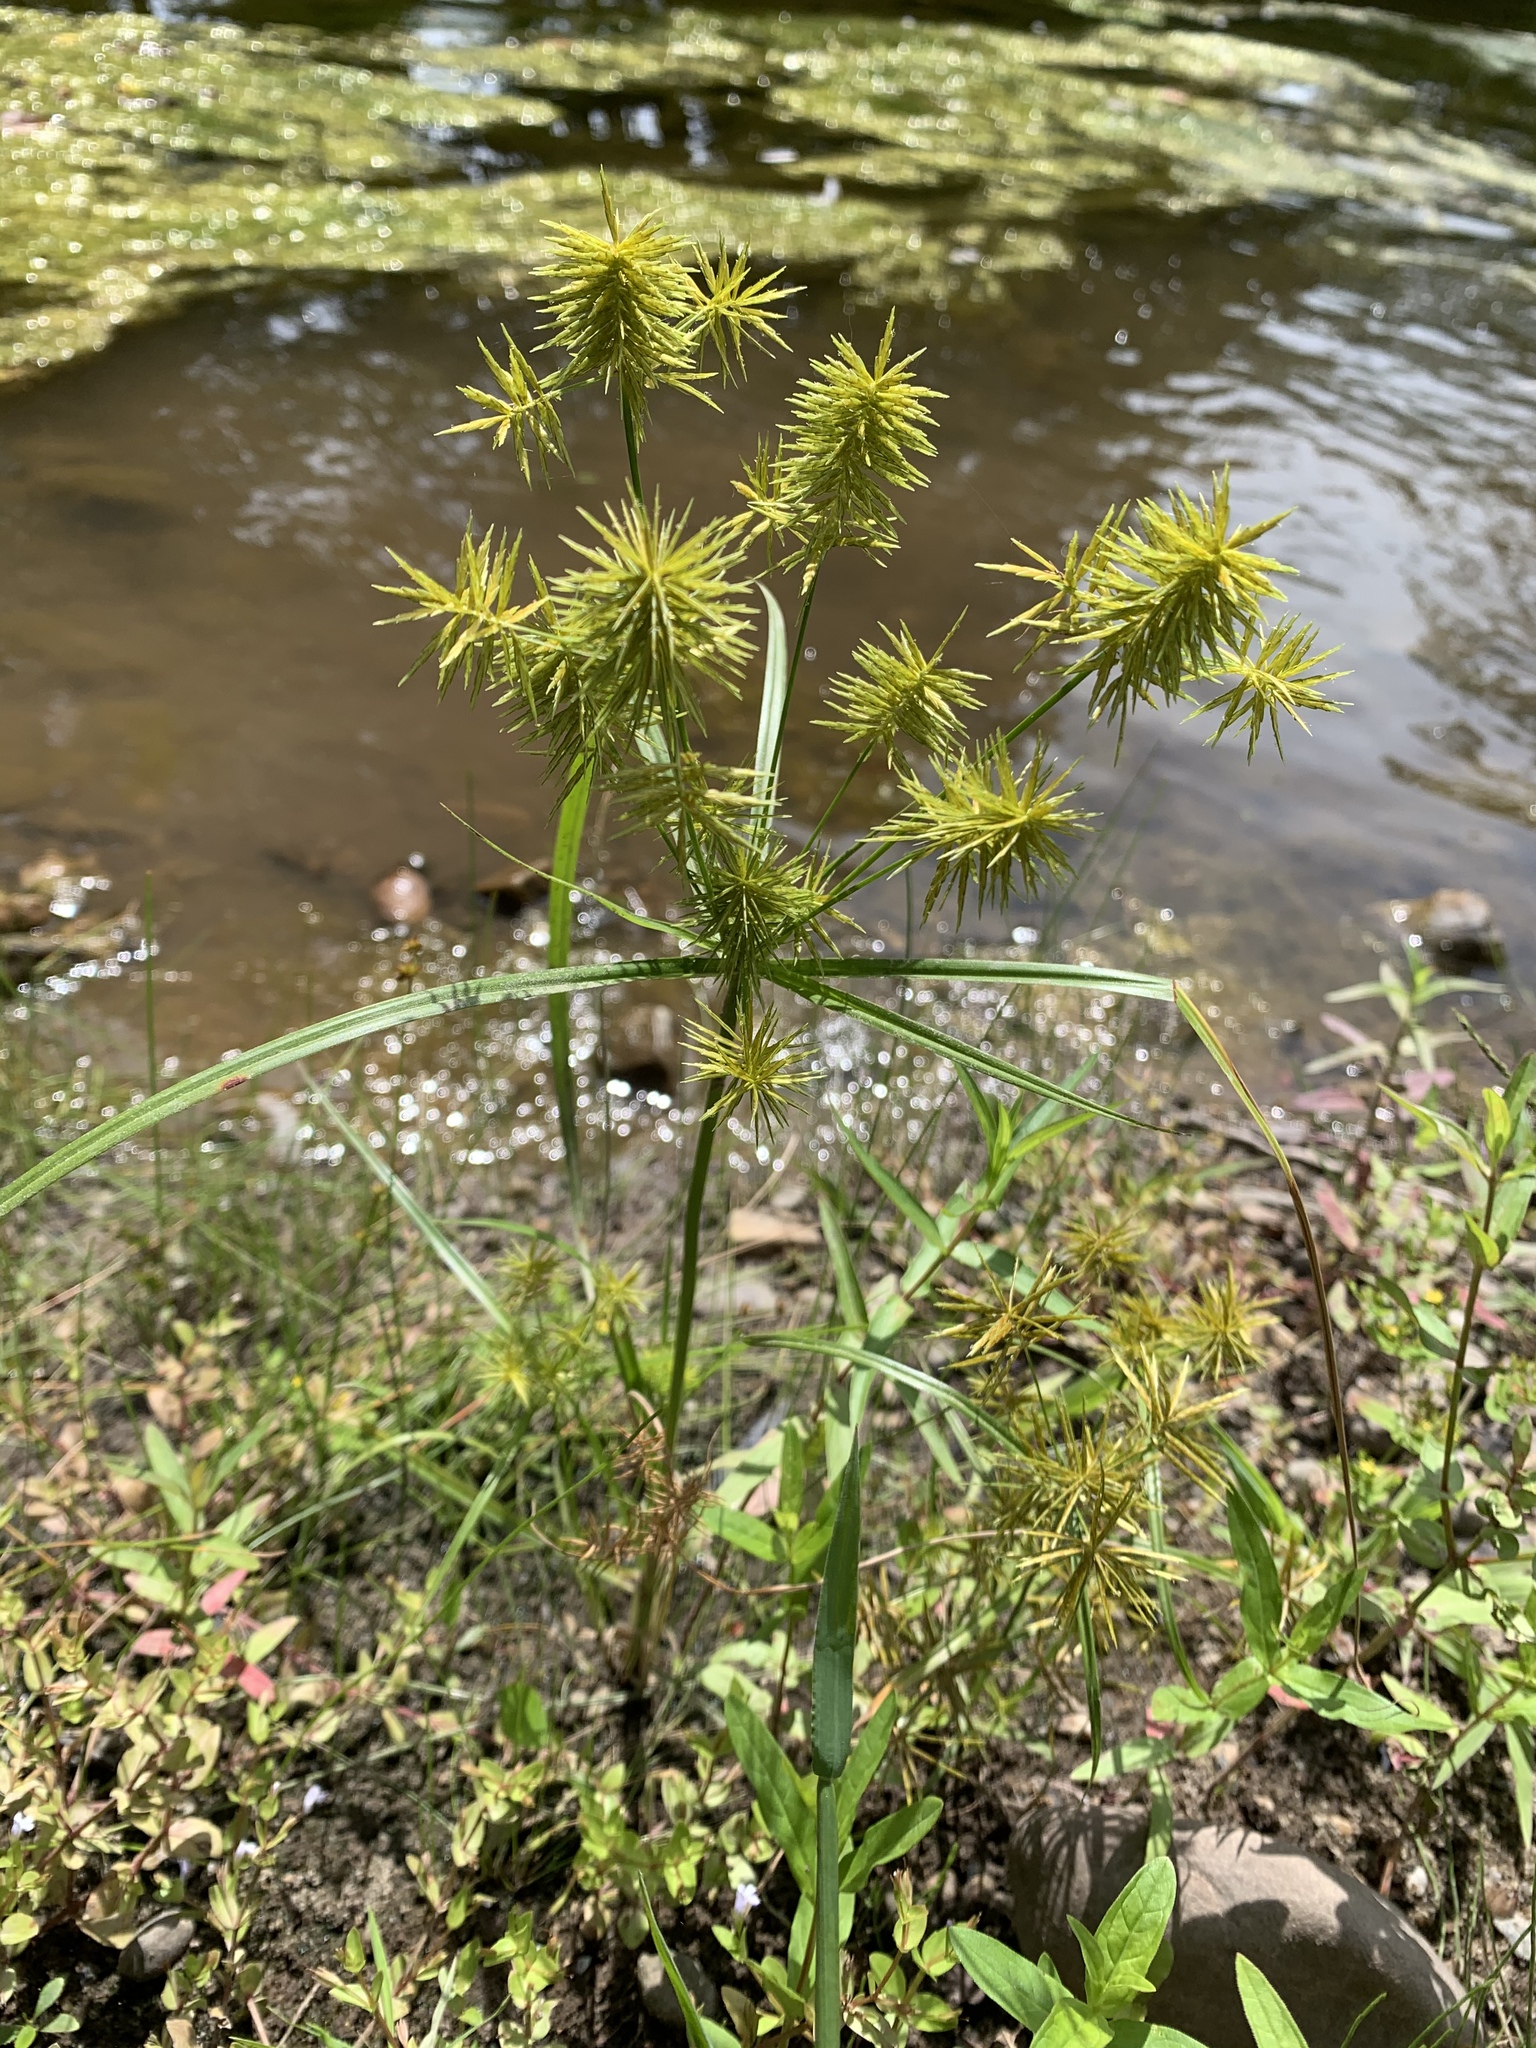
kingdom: Plantae
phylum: Tracheophyta
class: Liliopsida
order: Poales
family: Cyperaceae
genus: Cyperus
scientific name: Cyperus strigosus
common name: False nutsedge
